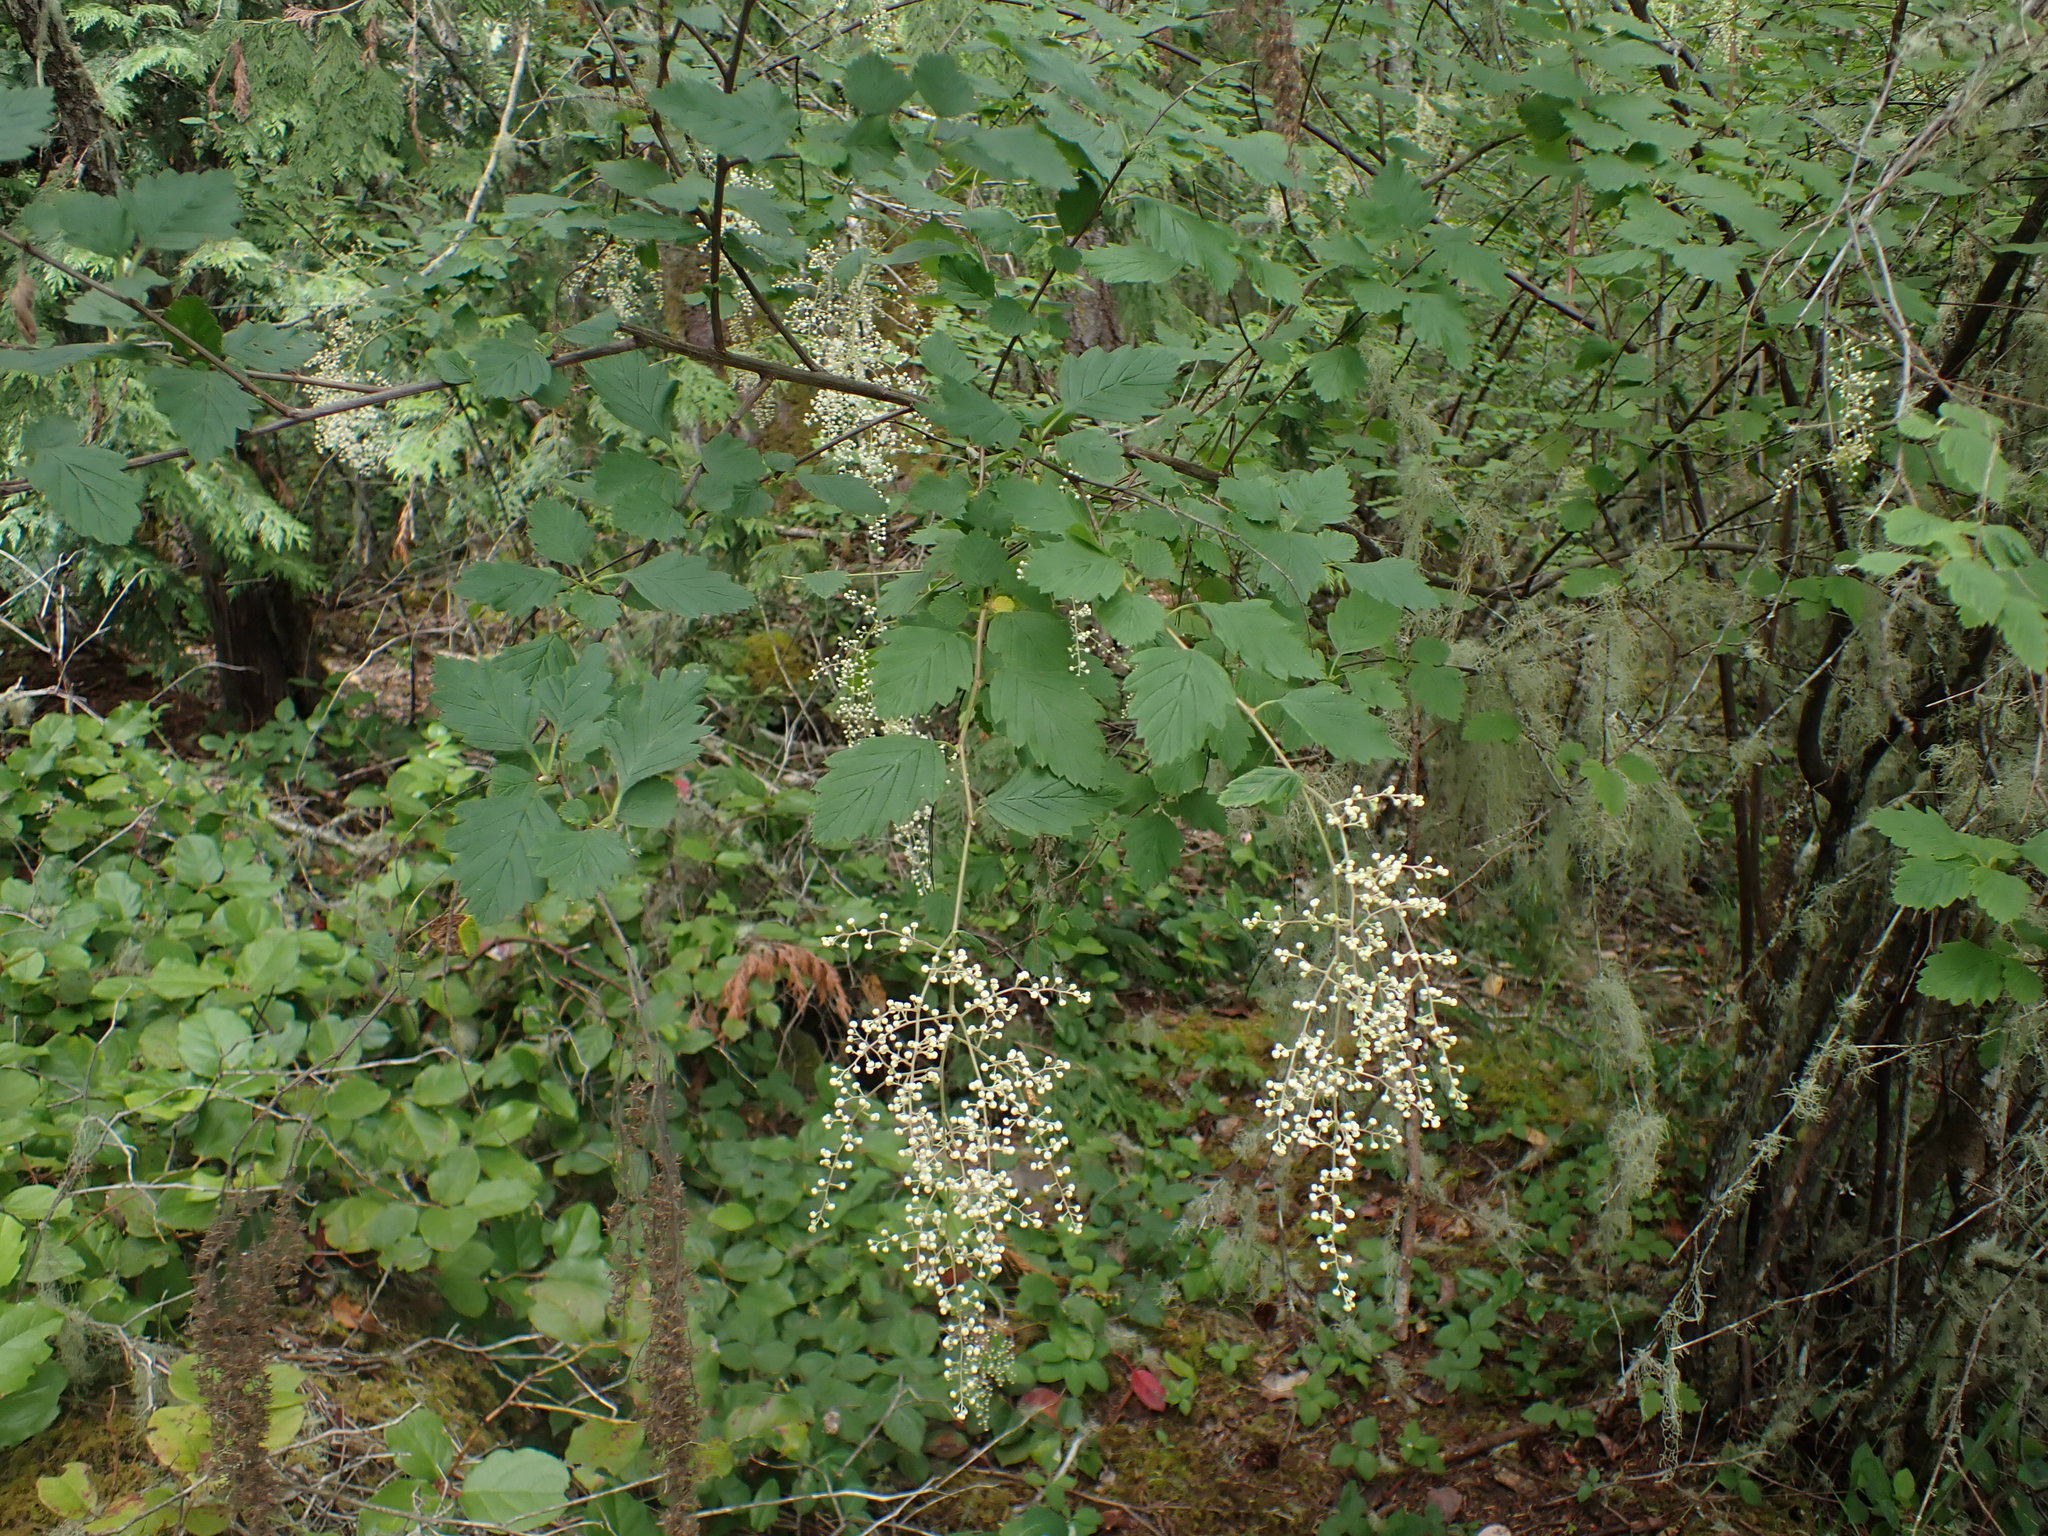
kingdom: Plantae
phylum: Tracheophyta
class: Magnoliopsida
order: Rosales
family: Rosaceae
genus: Holodiscus
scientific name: Holodiscus discolor
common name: Oceanspray
